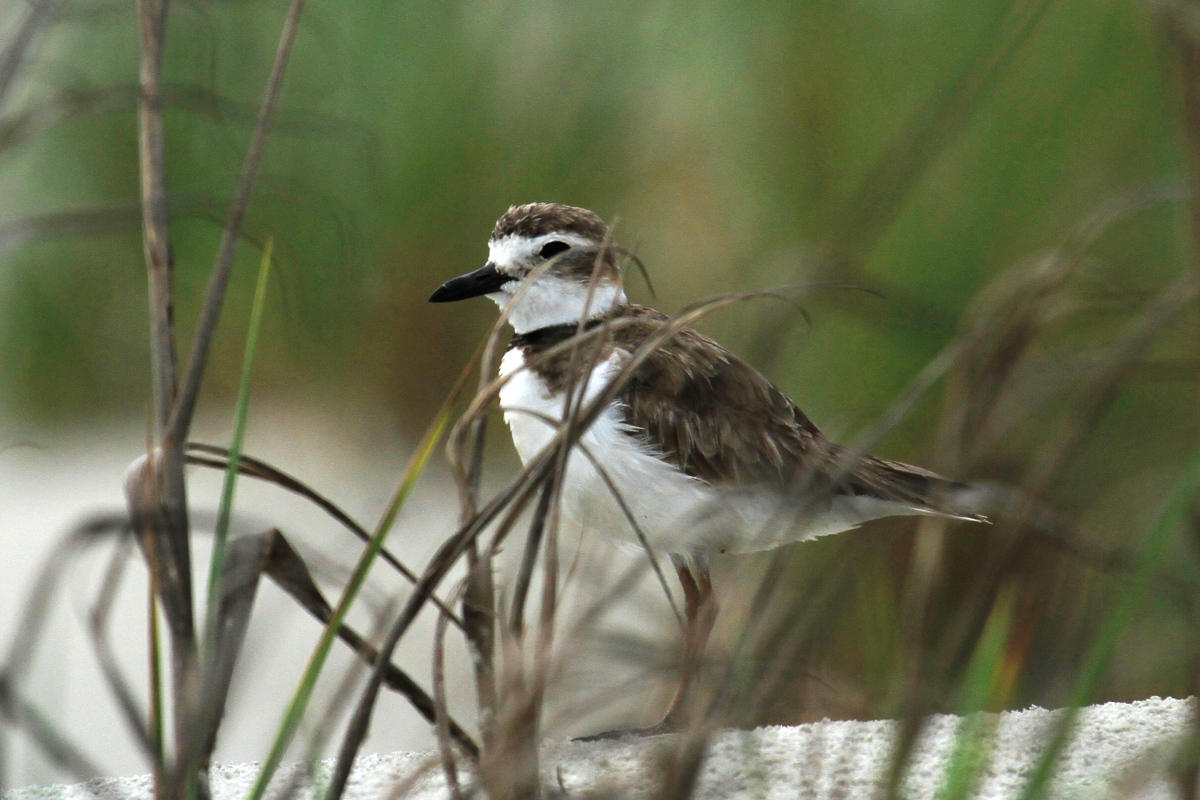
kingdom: Animalia
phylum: Chordata
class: Aves
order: Charadriiformes
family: Charadriidae
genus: Anarhynchus
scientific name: Anarhynchus
